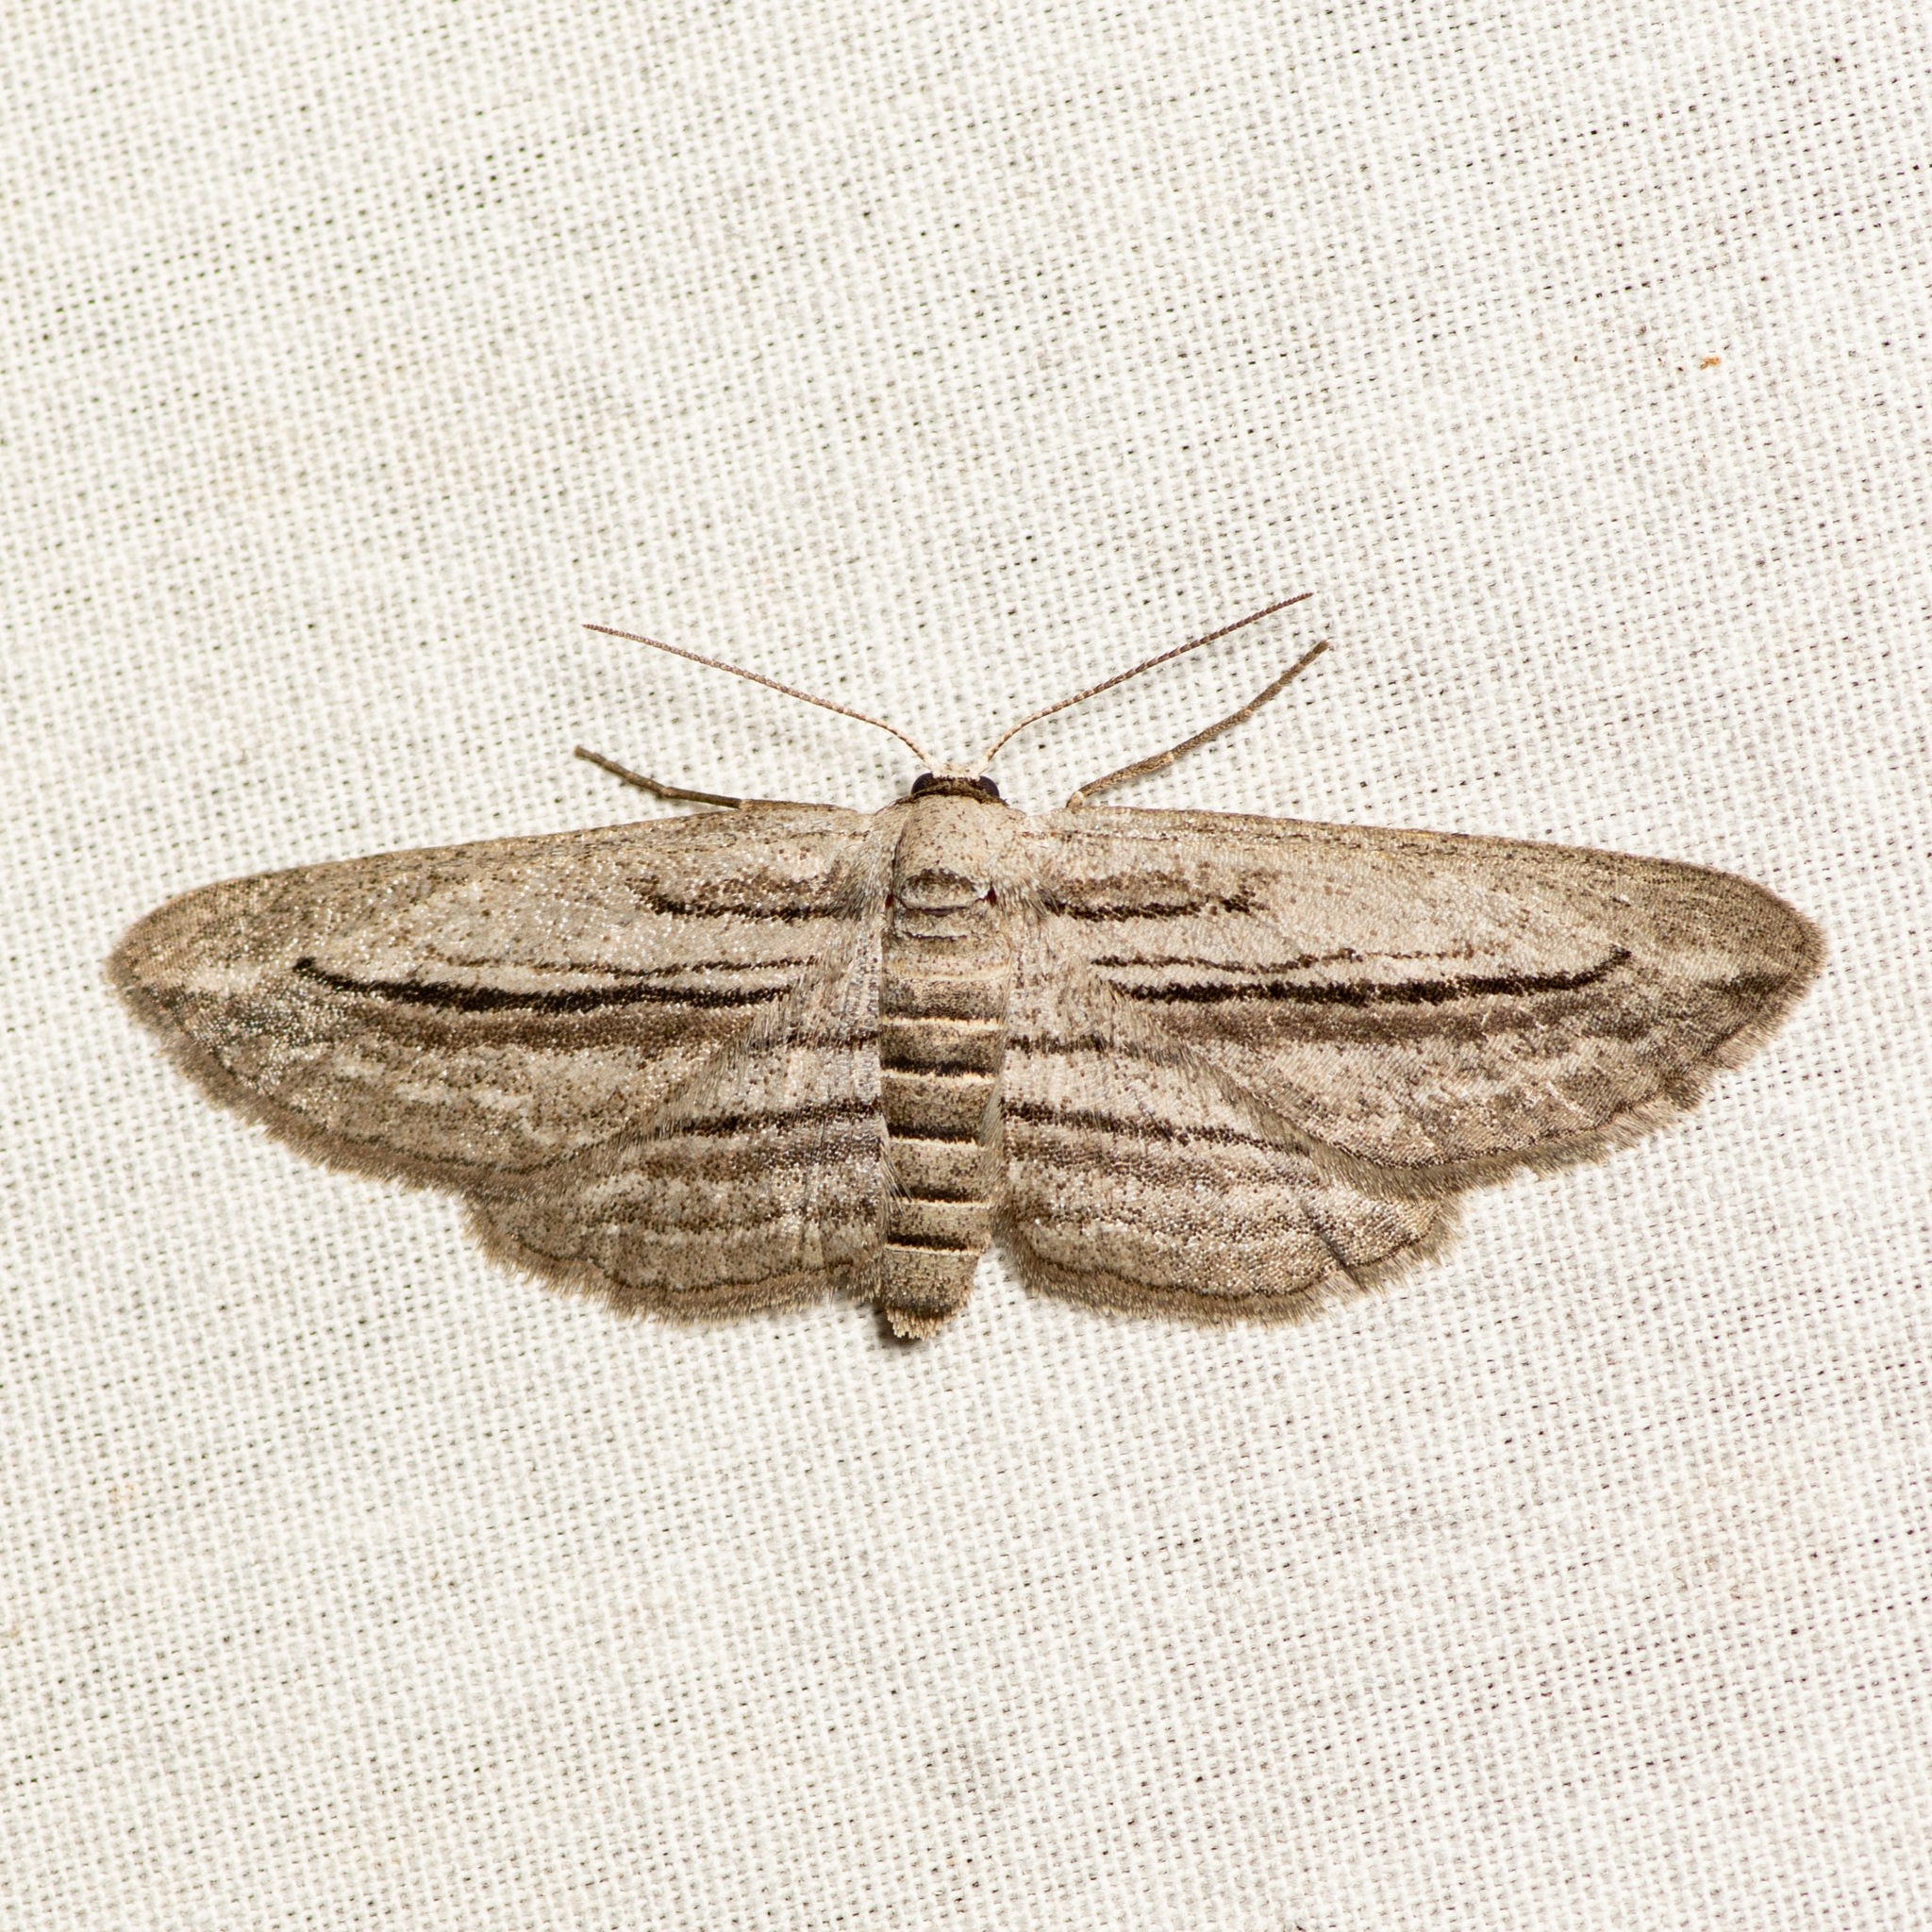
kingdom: Animalia
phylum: Arthropoda
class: Insecta
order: Lepidoptera
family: Geometridae
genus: Glena
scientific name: Glena quinquelinearia
